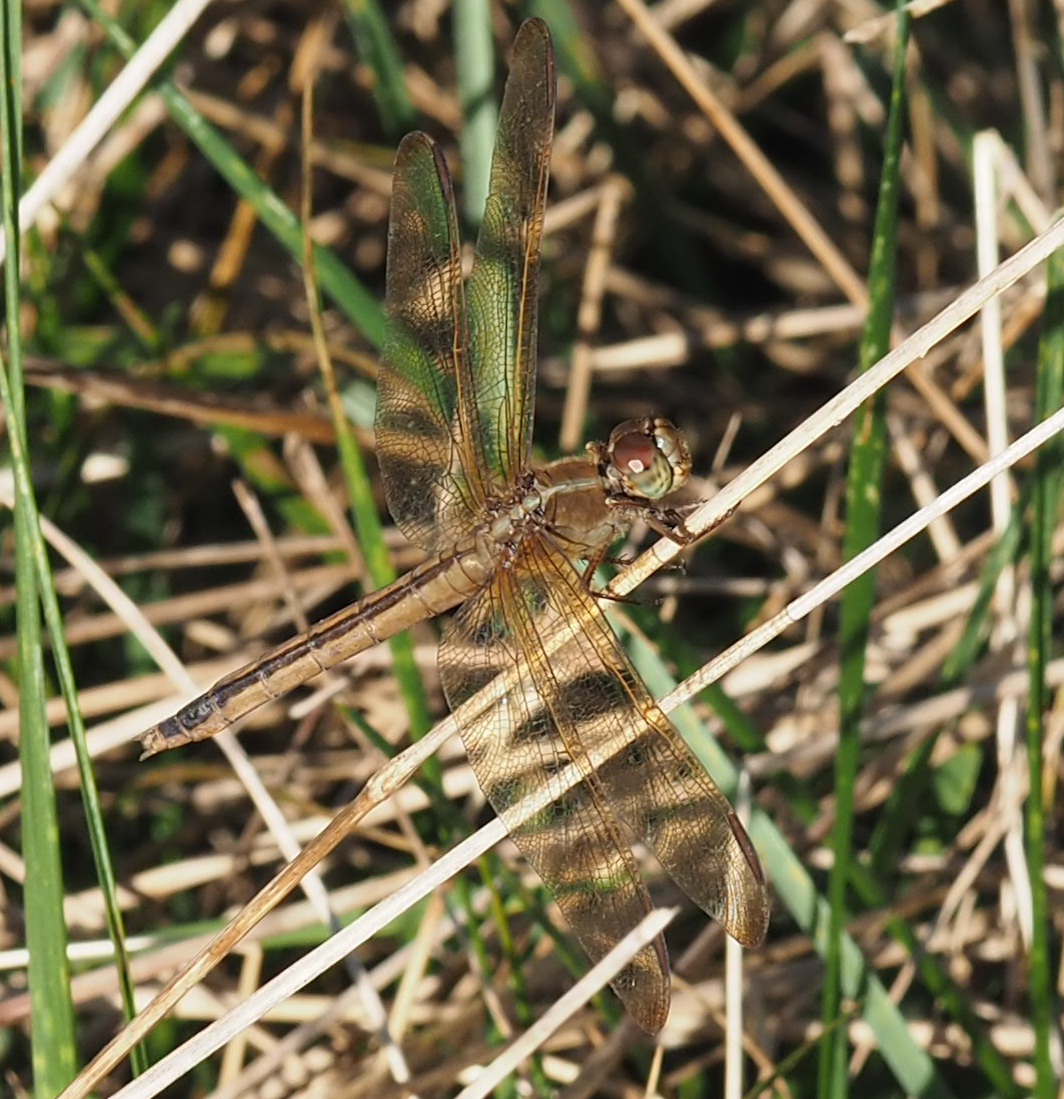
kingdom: Animalia
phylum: Arthropoda
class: Insecta
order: Odonata
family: Libellulidae
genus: Libellula
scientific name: Libellula needhami
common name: Needham's skimmer
